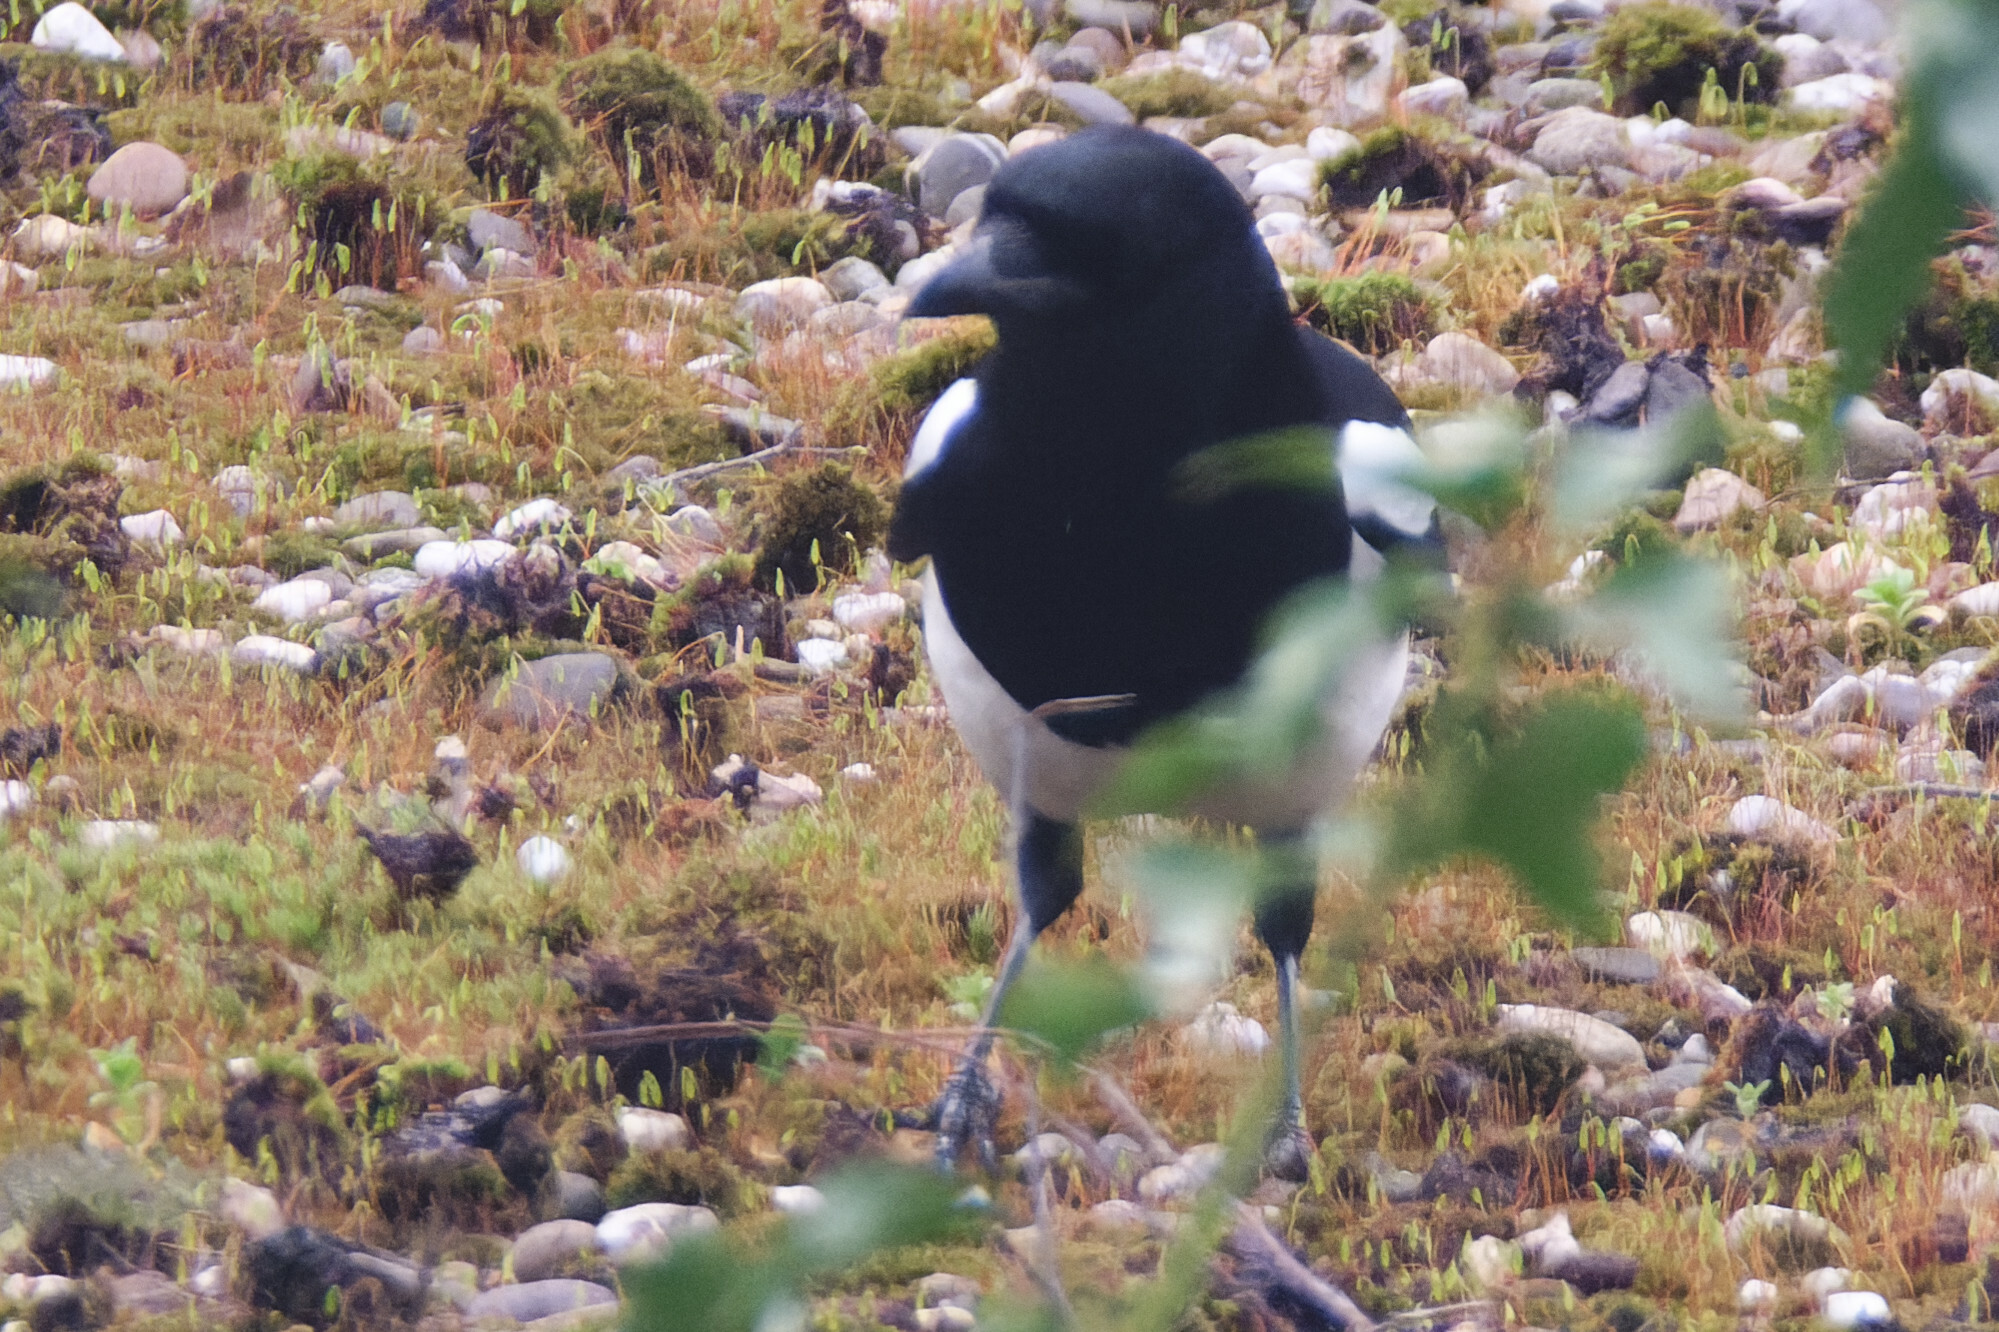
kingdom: Animalia
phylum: Chordata
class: Aves
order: Passeriformes
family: Corvidae
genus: Pica
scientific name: Pica pica
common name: Eurasian magpie
